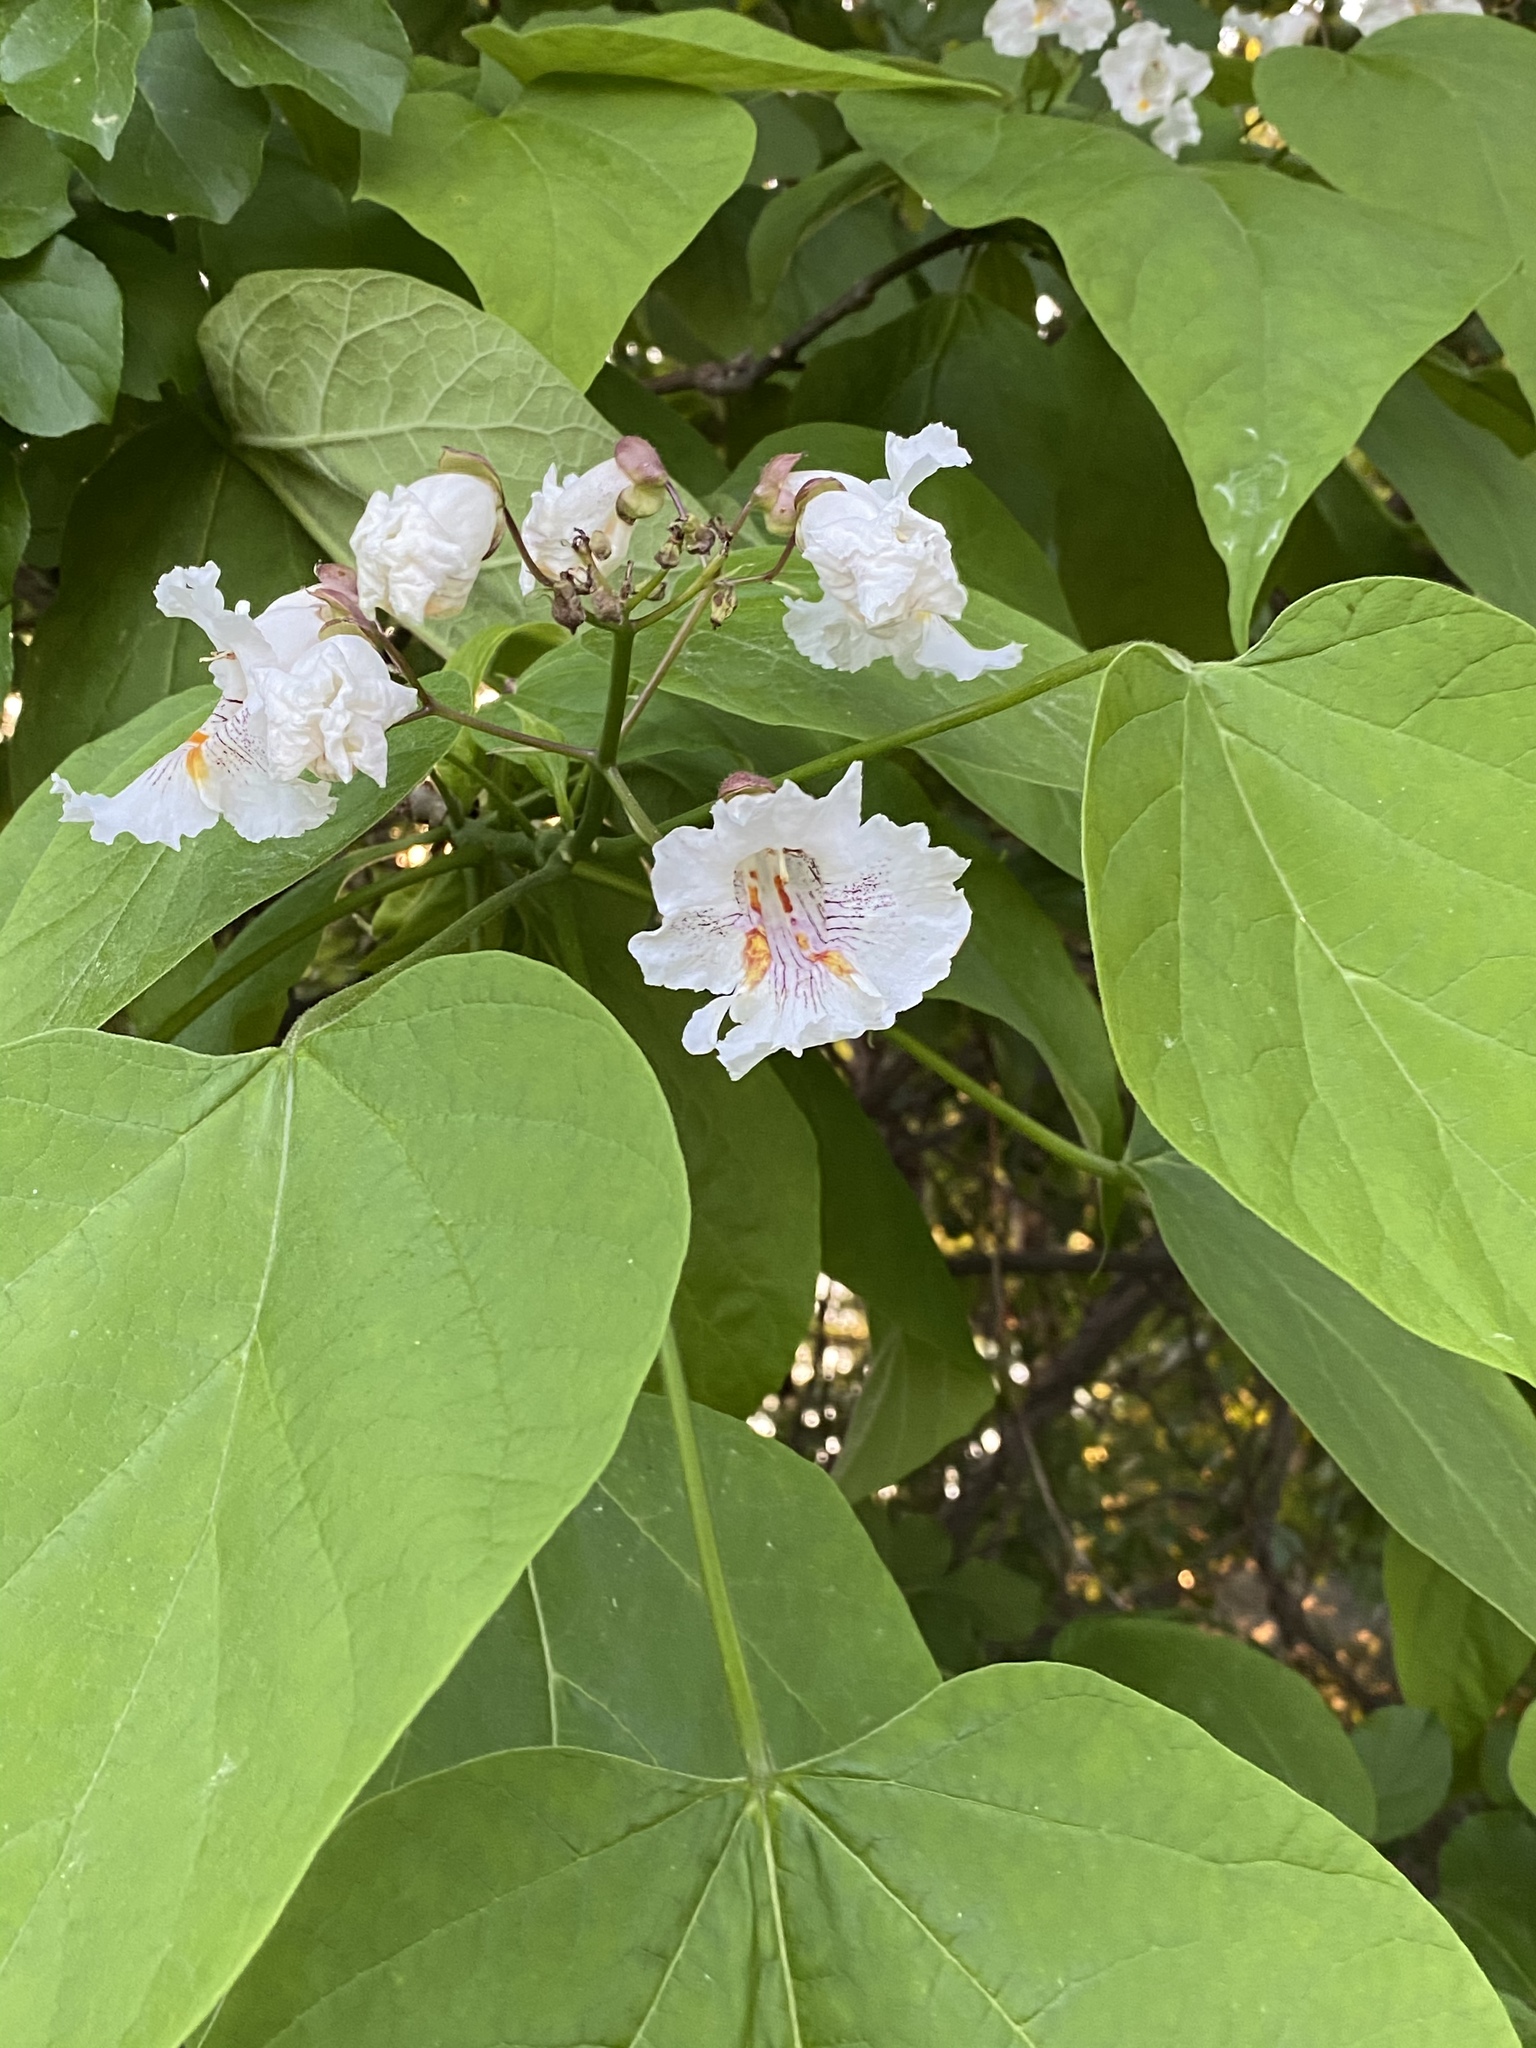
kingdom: Plantae
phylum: Tracheophyta
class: Magnoliopsida
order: Lamiales
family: Bignoniaceae
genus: Catalpa
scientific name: Catalpa speciosa
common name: Northern catalpa
